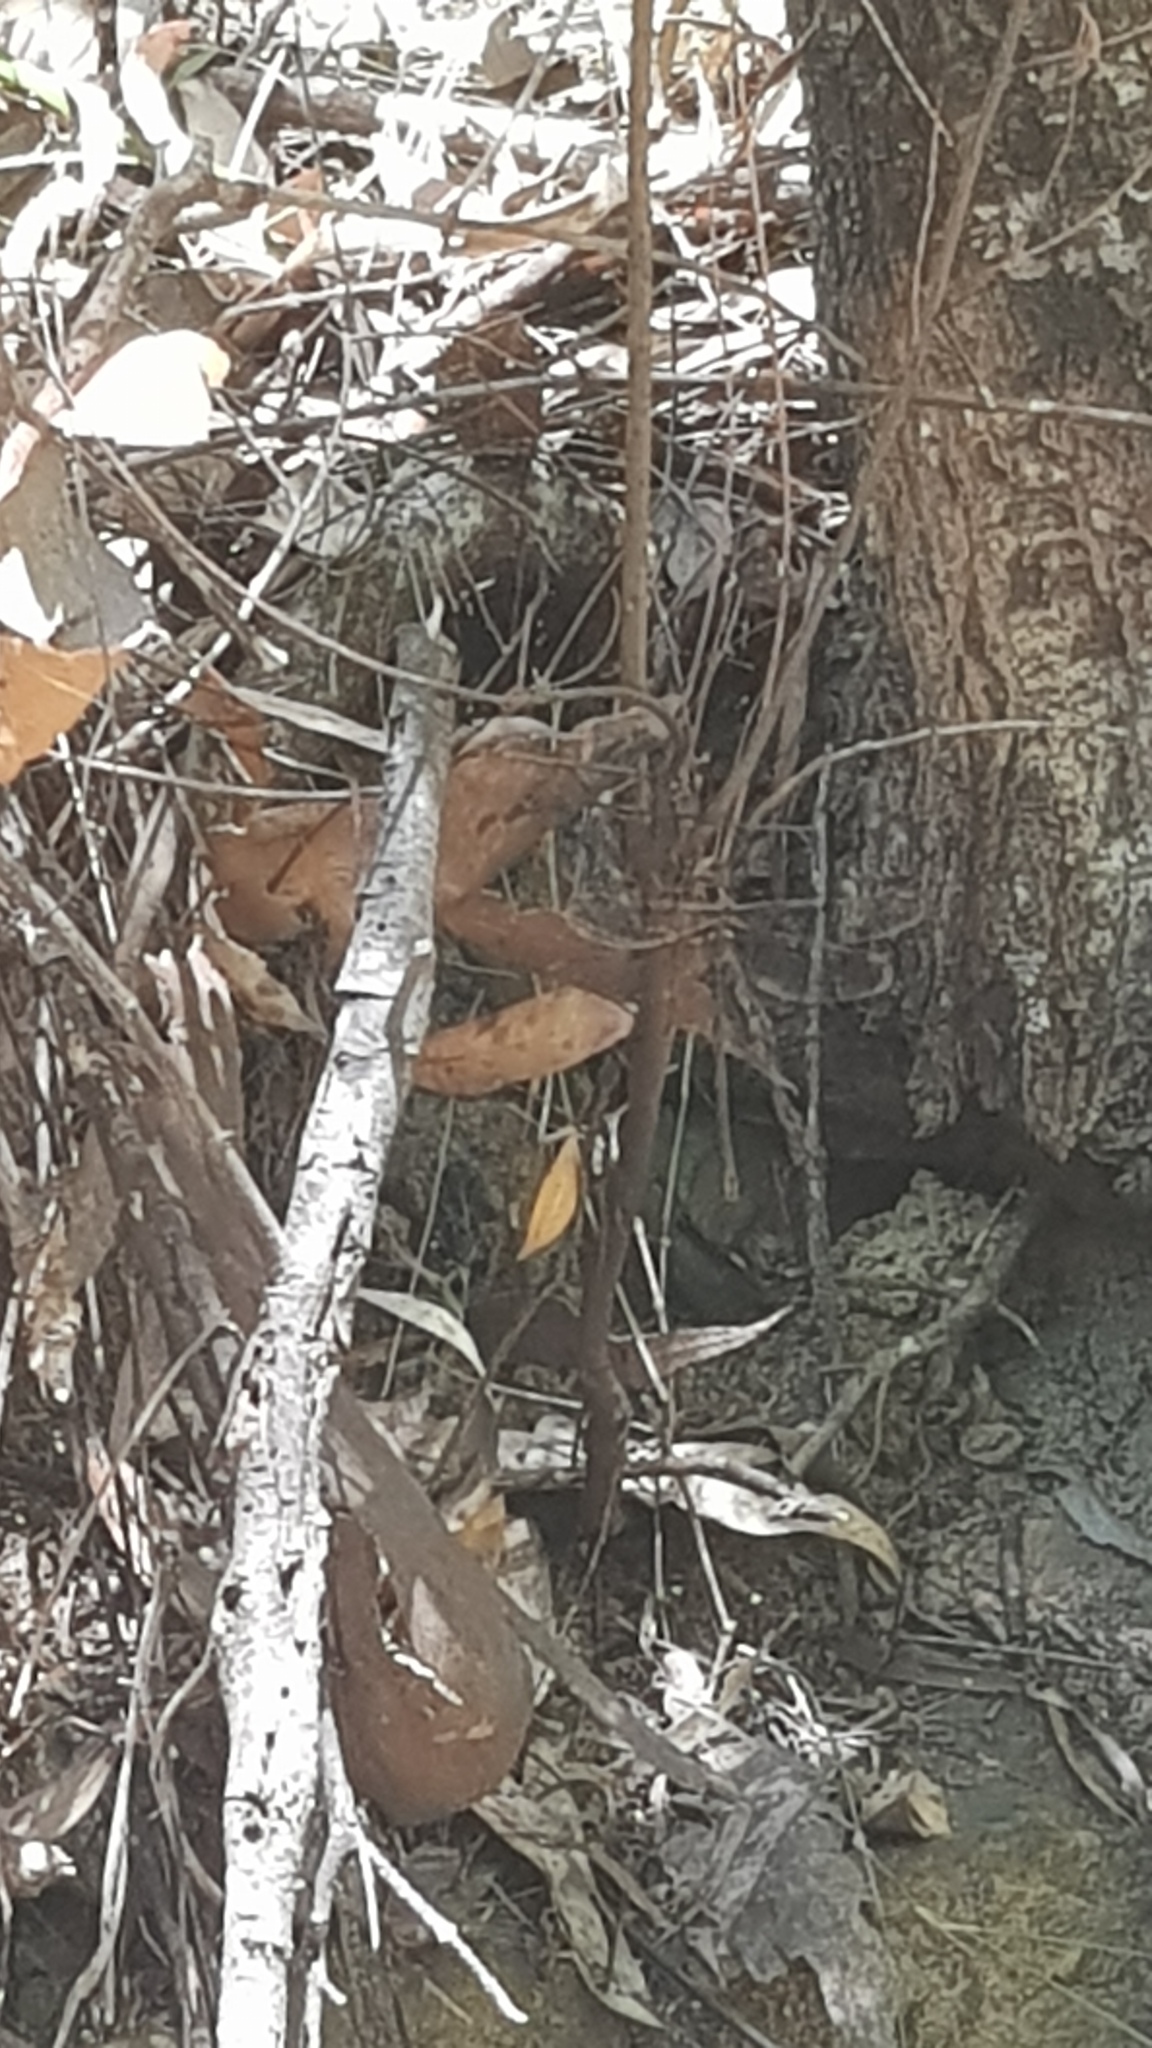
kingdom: Animalia
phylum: Arthropoda
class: Insecta
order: Odonata
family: Aeshnidae
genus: Telephlebia
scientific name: Telephlebia godeffroyi
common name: Eastern evening darner
